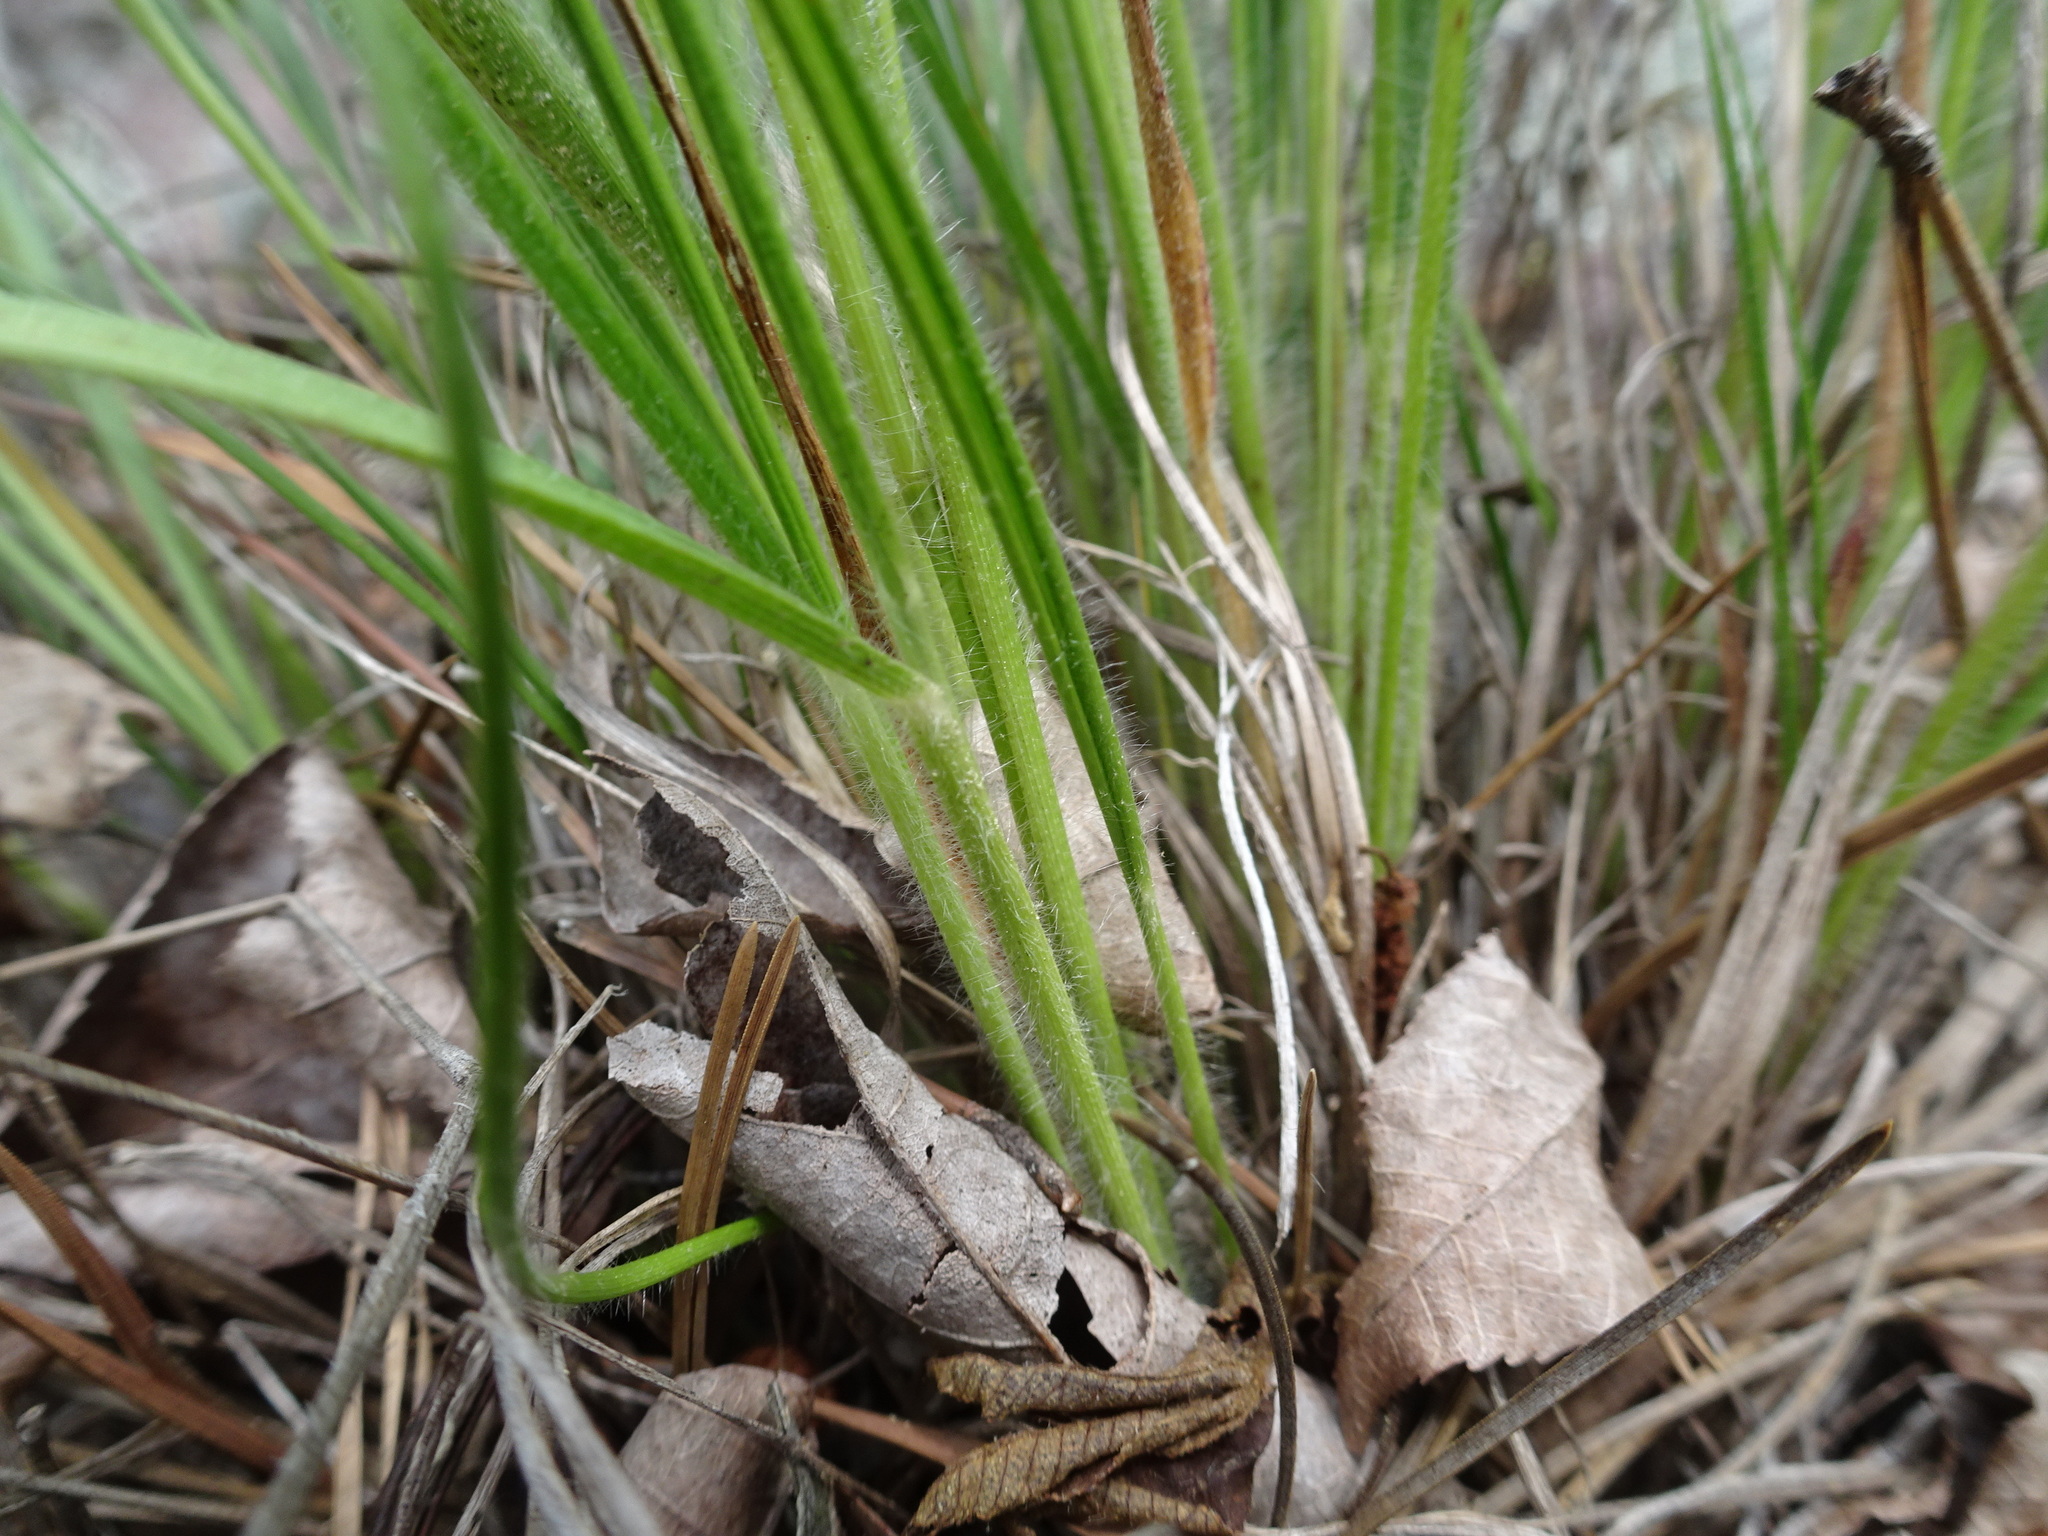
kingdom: Plantae
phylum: Tracheophyta
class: Liliopsida
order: Poales
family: Poaceae
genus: Dichanthelium
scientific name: Dichanthelium linearifolium
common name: Linear-leaved panicgrass
